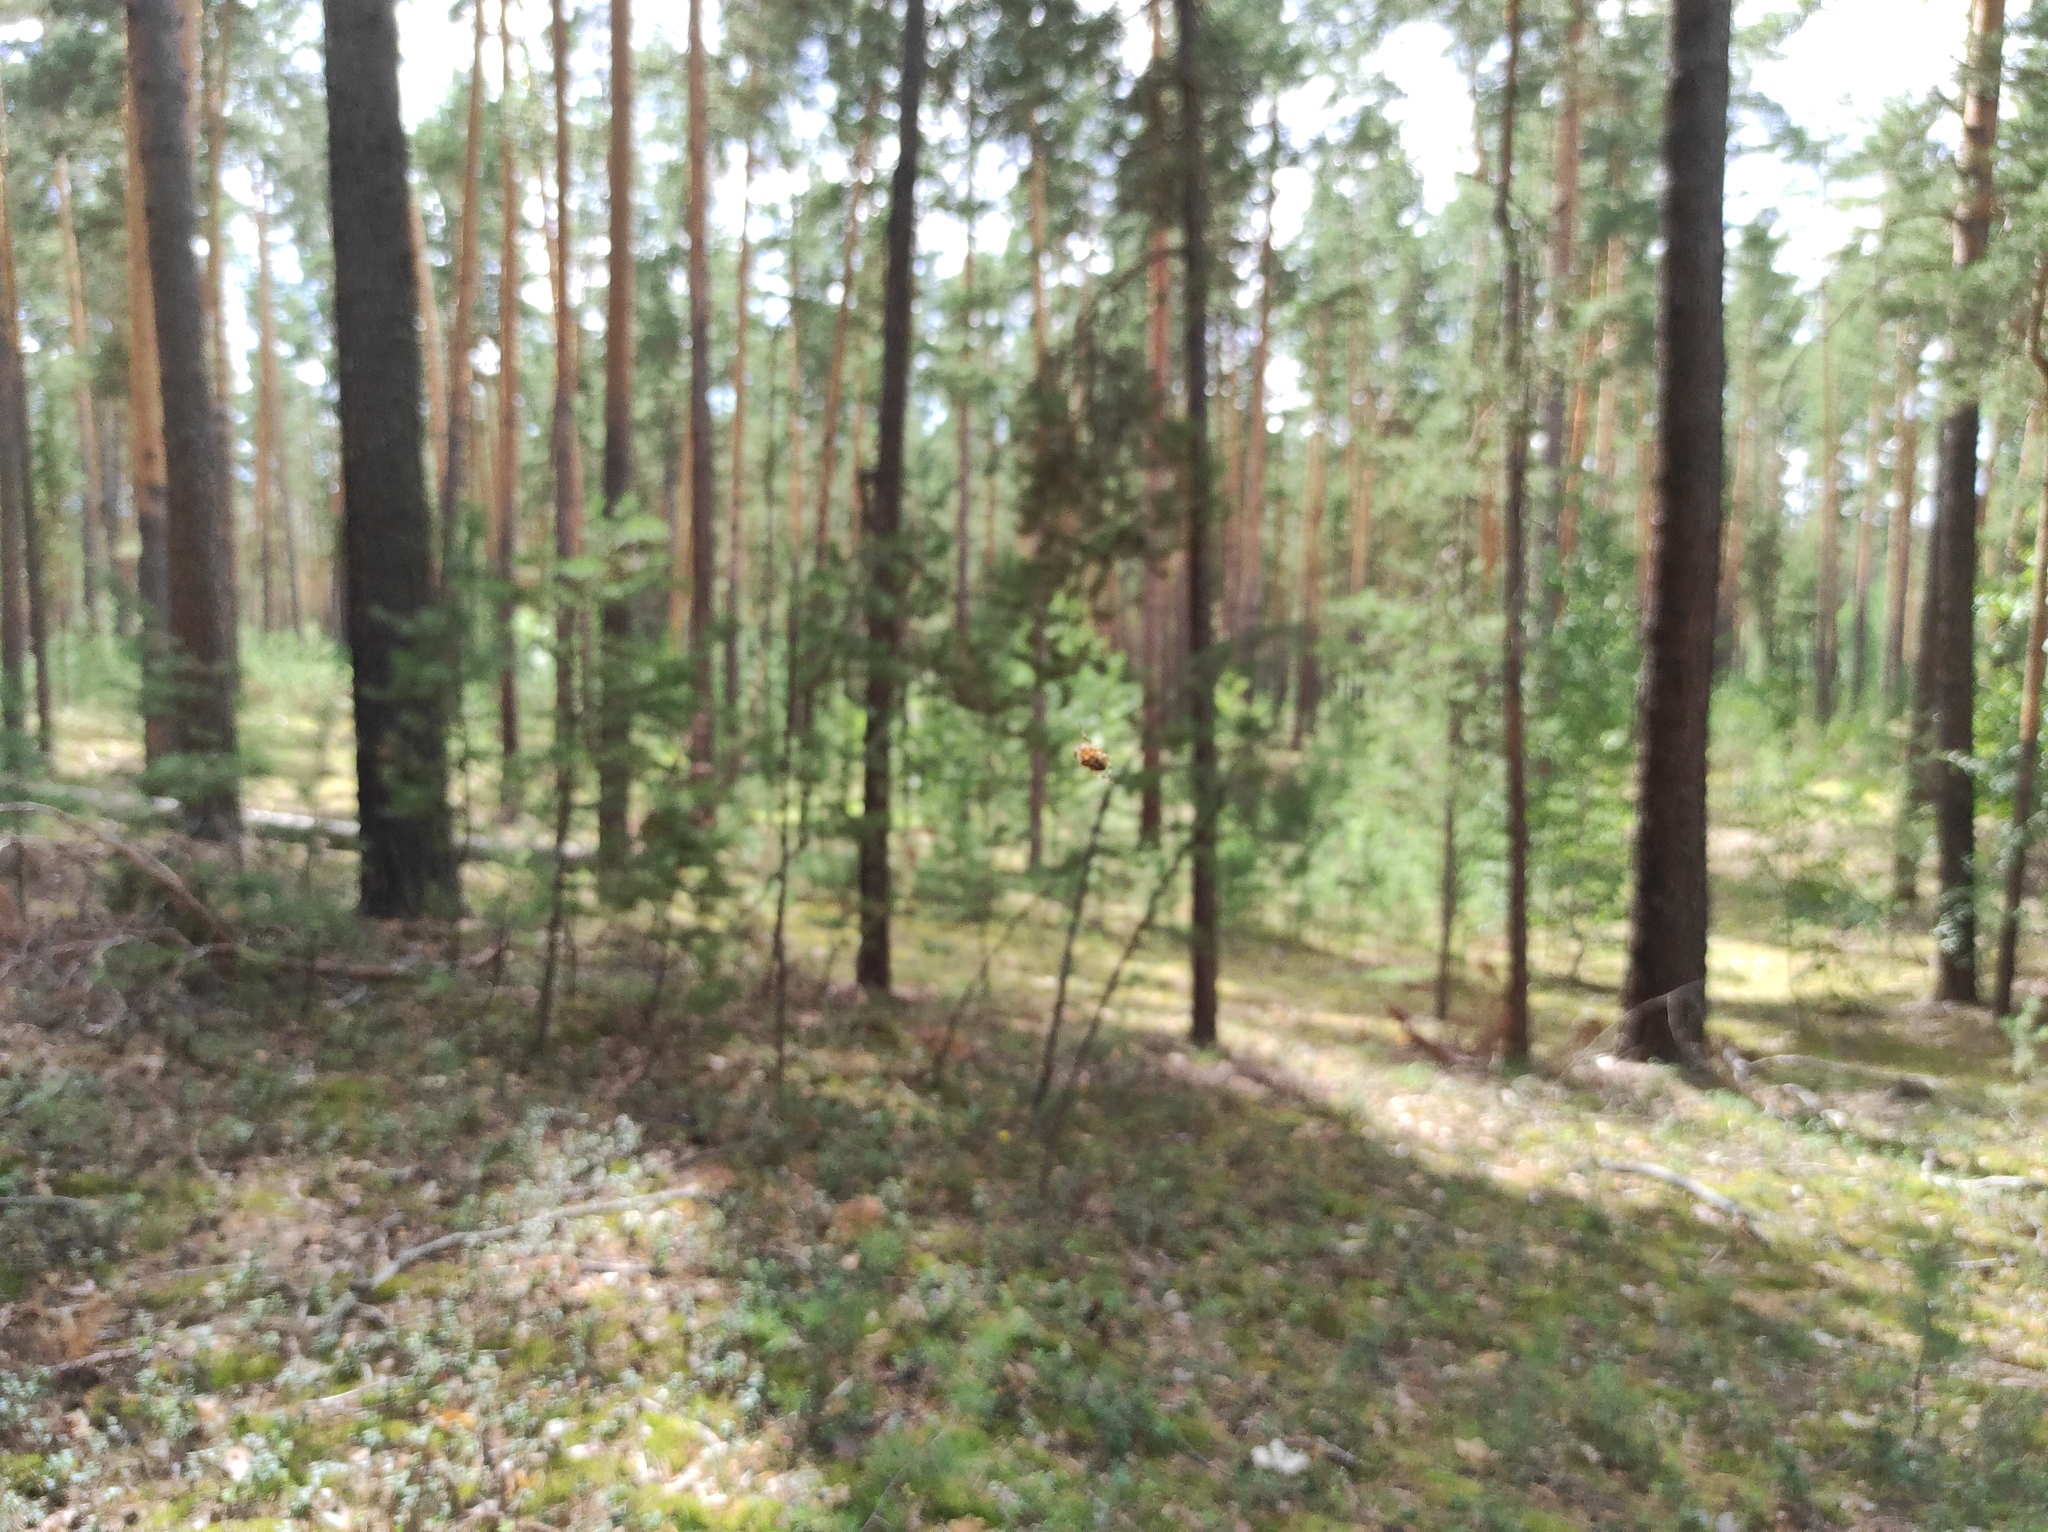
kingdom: Animalia
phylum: Arthropoda
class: Arachnida
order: Araneae
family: Araneidae
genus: Araneus
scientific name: Araneus diadematus
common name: Cross orbweaver
